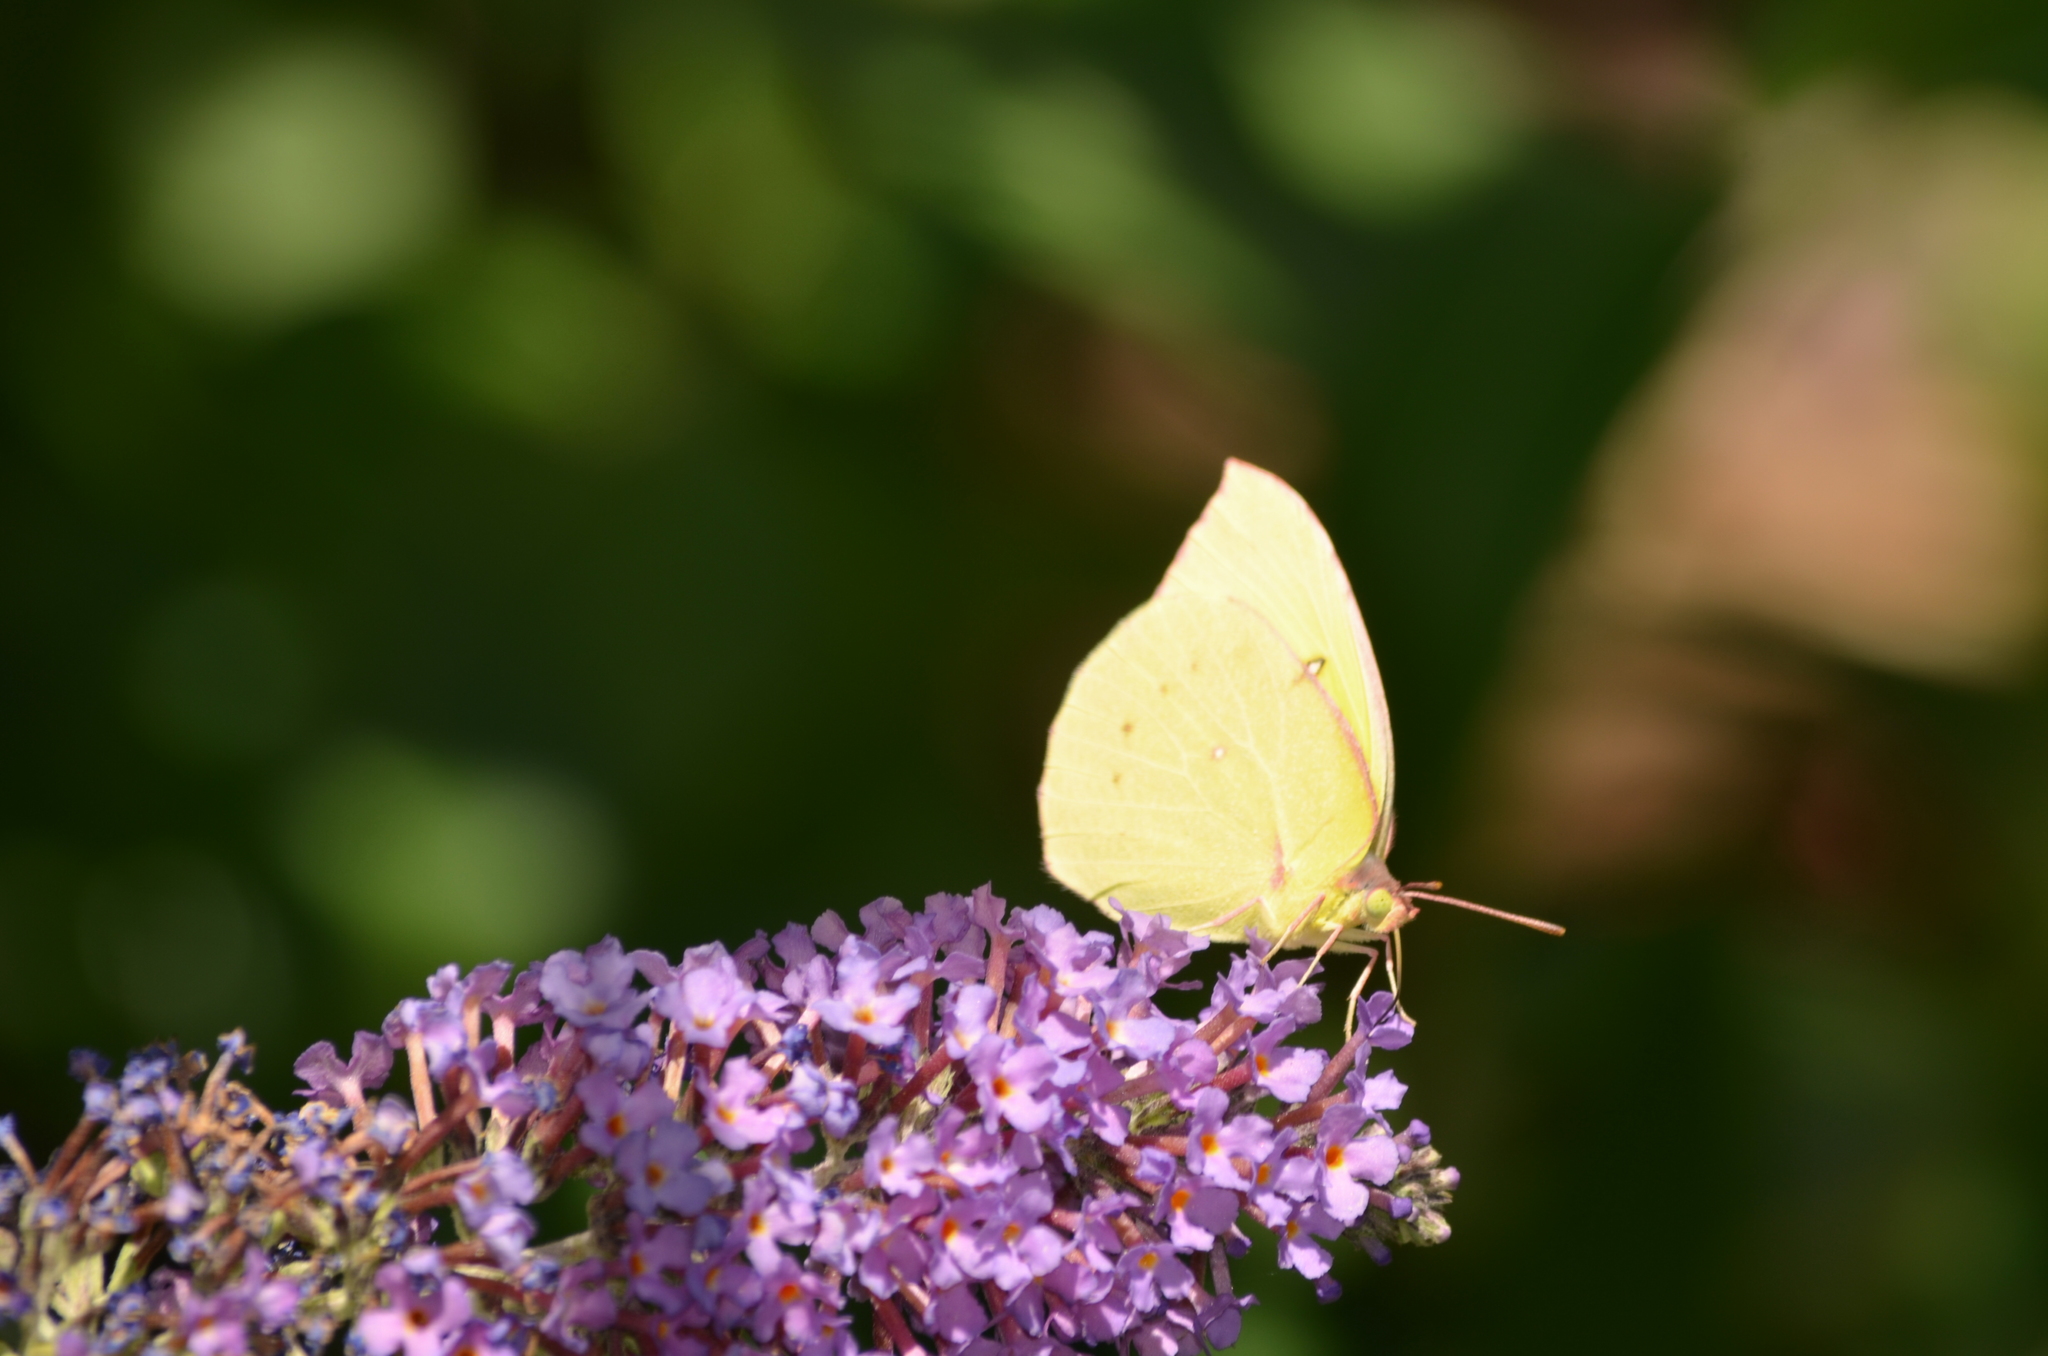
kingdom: Animalia
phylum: Arthropoda
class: Insecta
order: Lepidoptera
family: Pieridae
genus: Zerene
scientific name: Zerene eurydice
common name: California dogface
